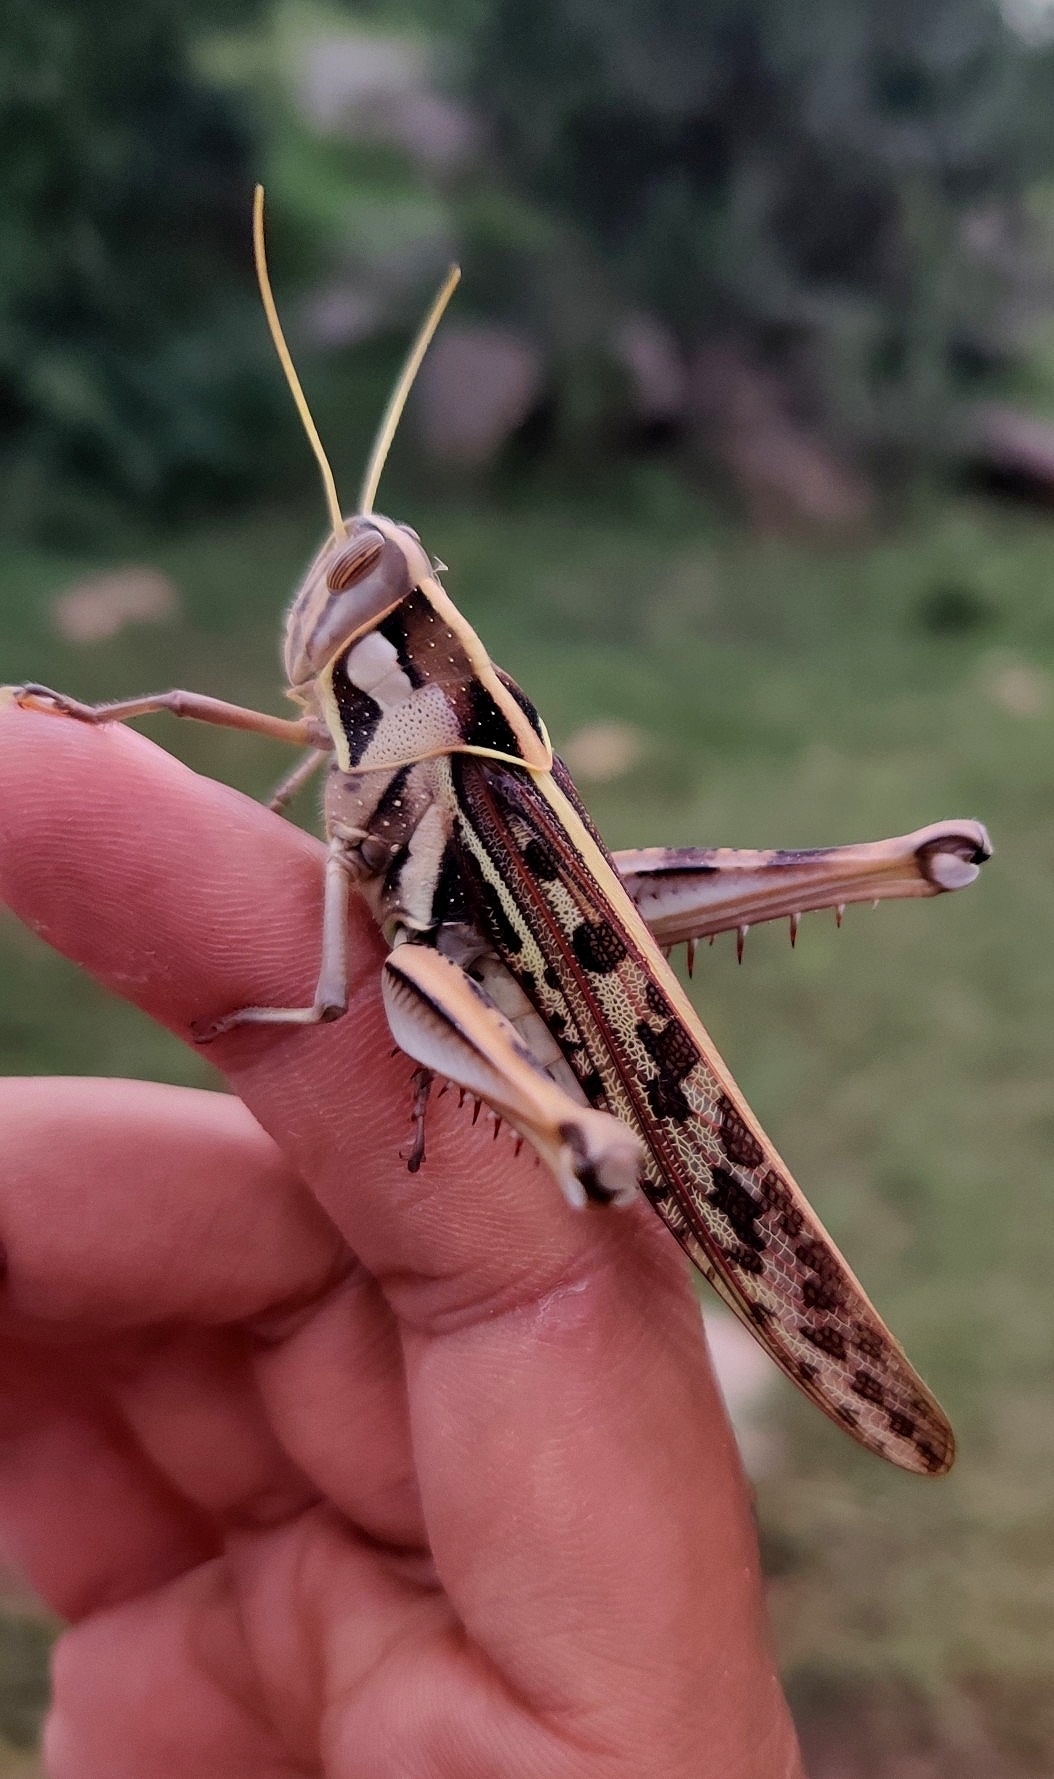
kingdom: Animalia
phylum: Arthropoda
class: Insecta
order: Orthoptera
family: Acrididae
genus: Cyrtacanthacris
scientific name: Cyrtacanthacris tatarica
